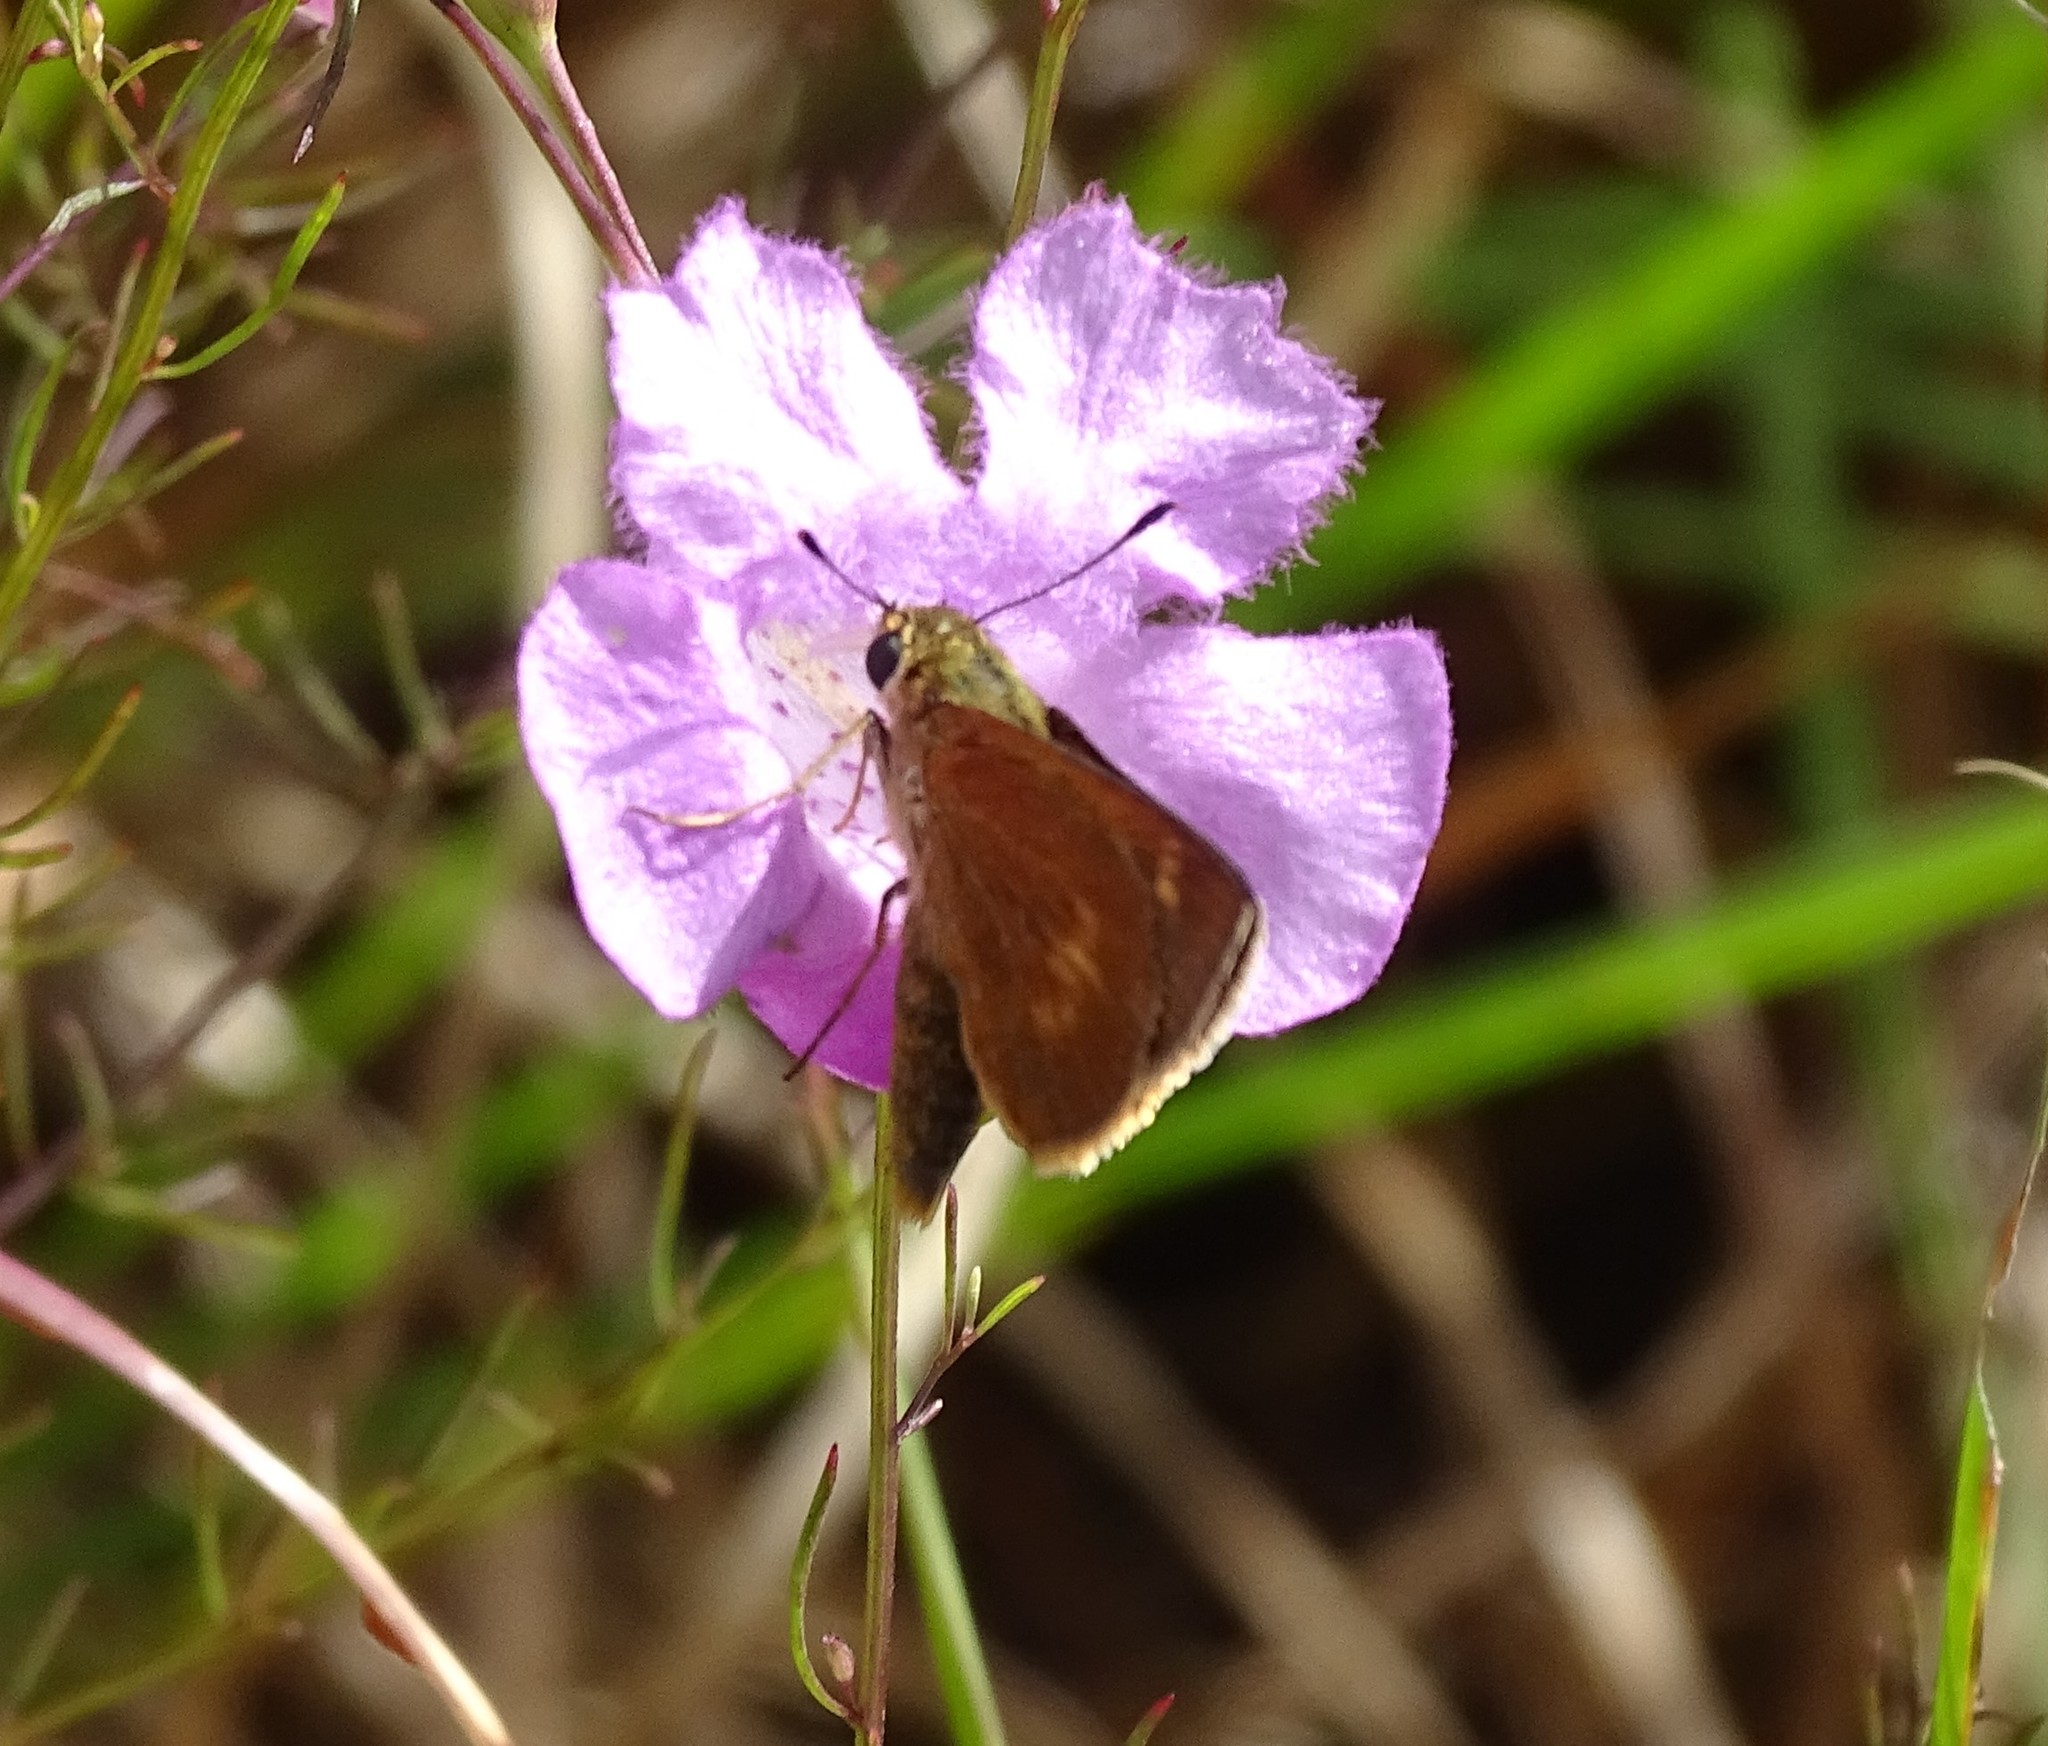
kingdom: Animalia
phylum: Arthropoda
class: Insecta
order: Lepidoptera
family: Hesperiidae
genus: Polites
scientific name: Polites otho
